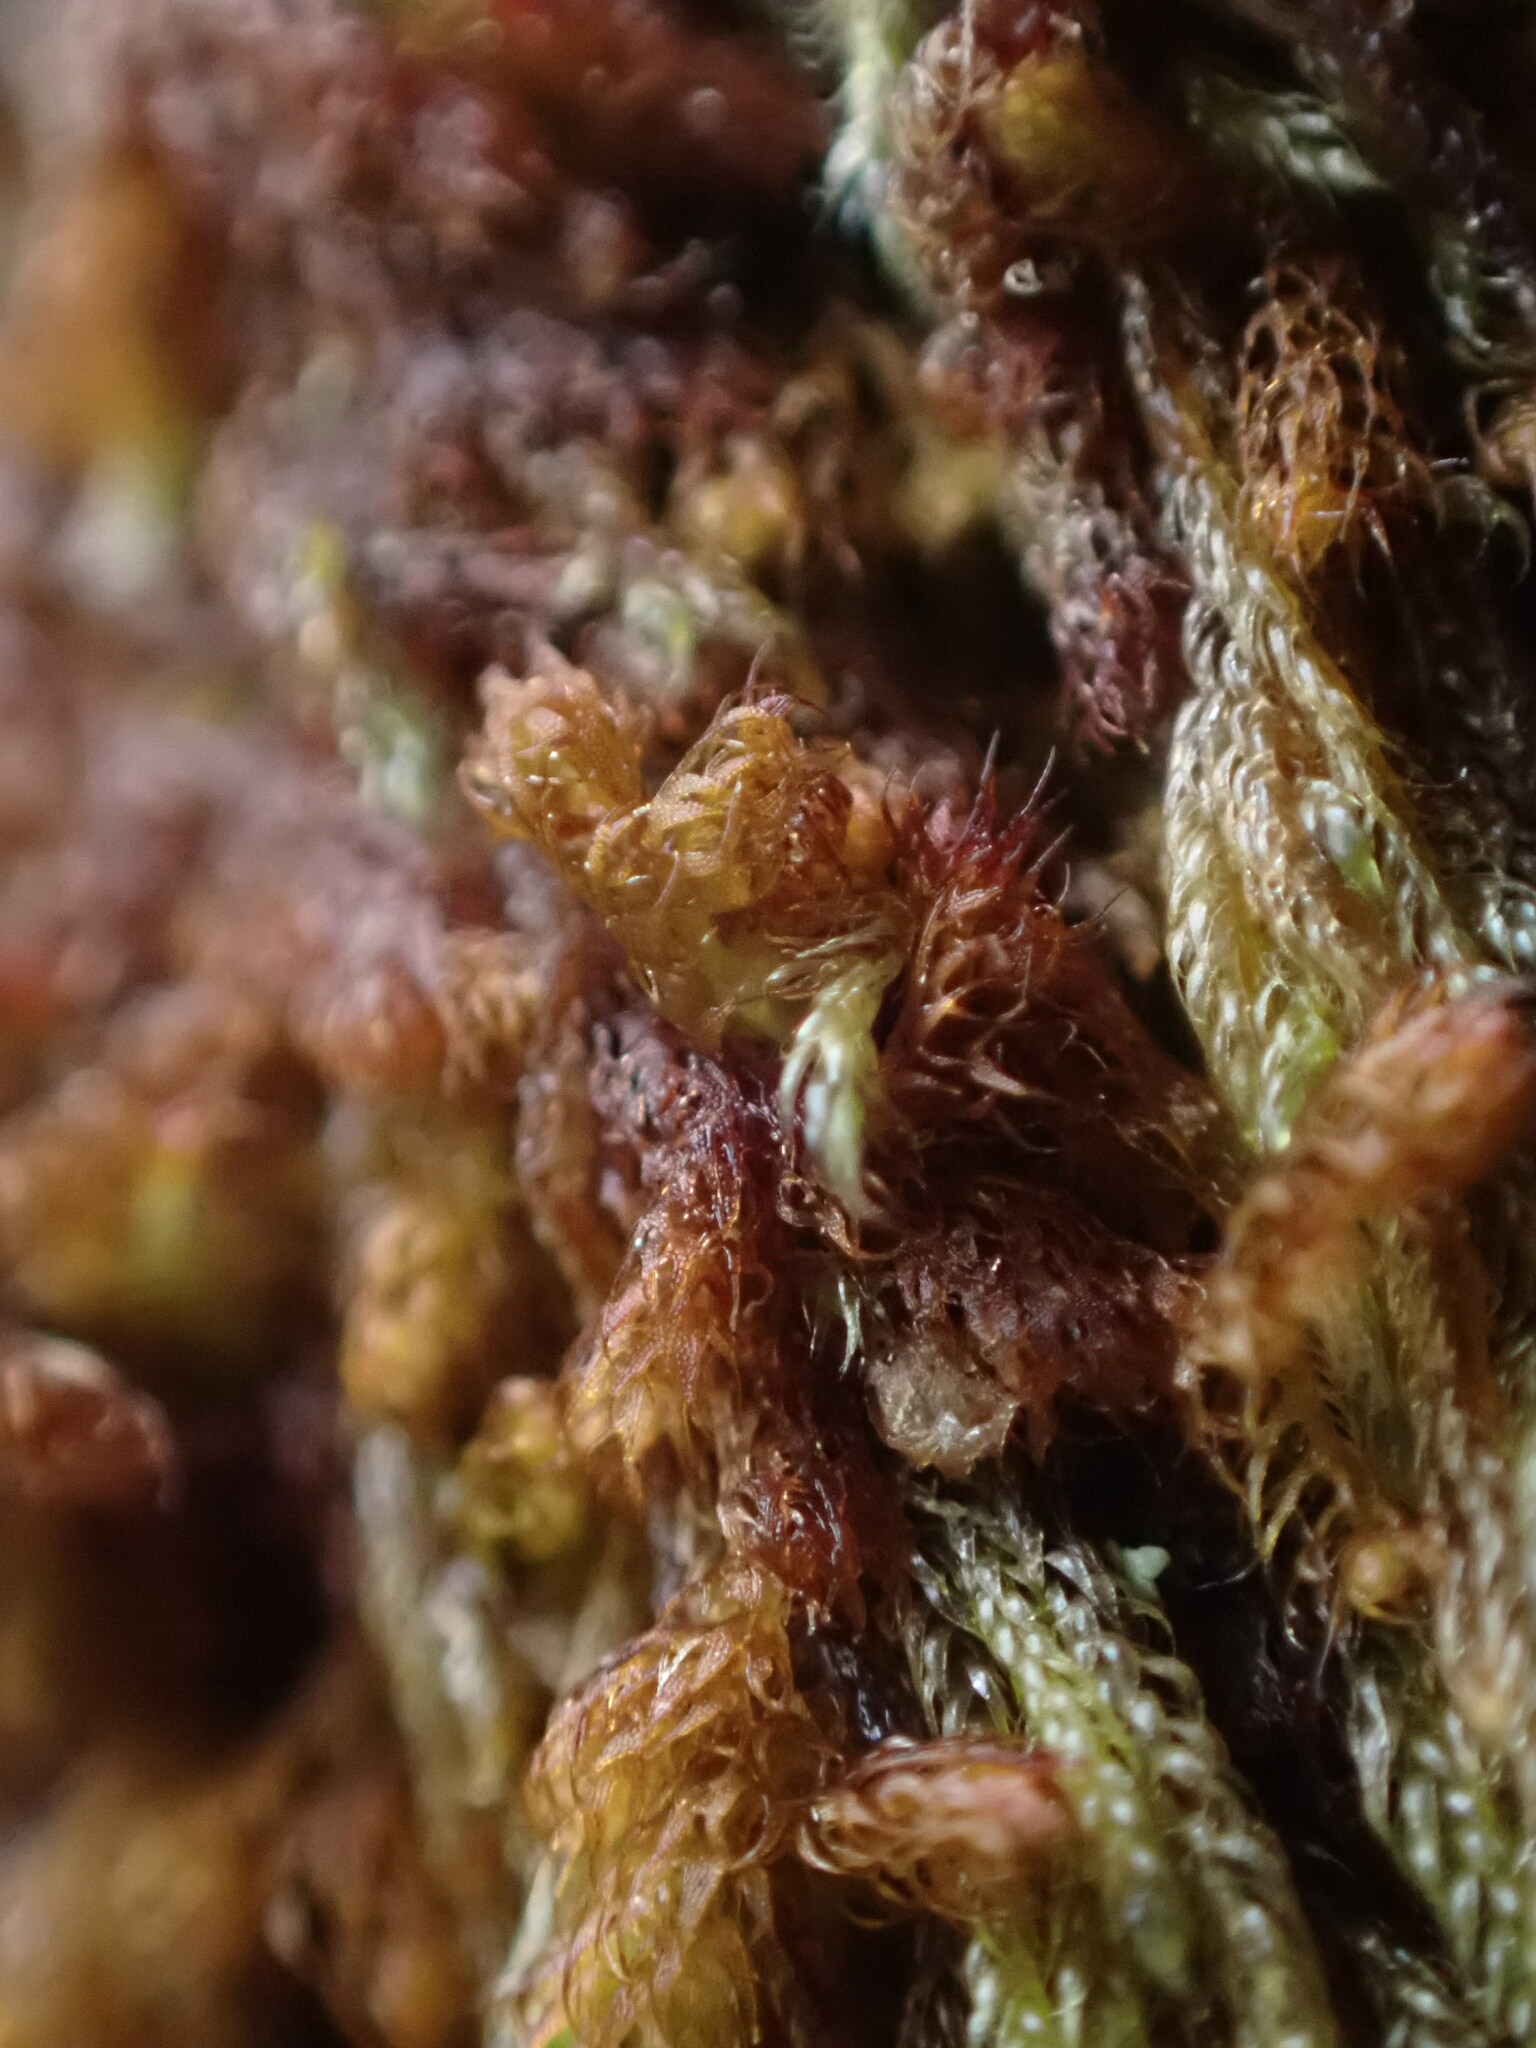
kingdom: Plantae
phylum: Marchantiophyta
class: Jungermanniopsida
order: Ptilidiales
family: Ptilidiaceae
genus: Ptilidium
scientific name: Ptilidium californicum
